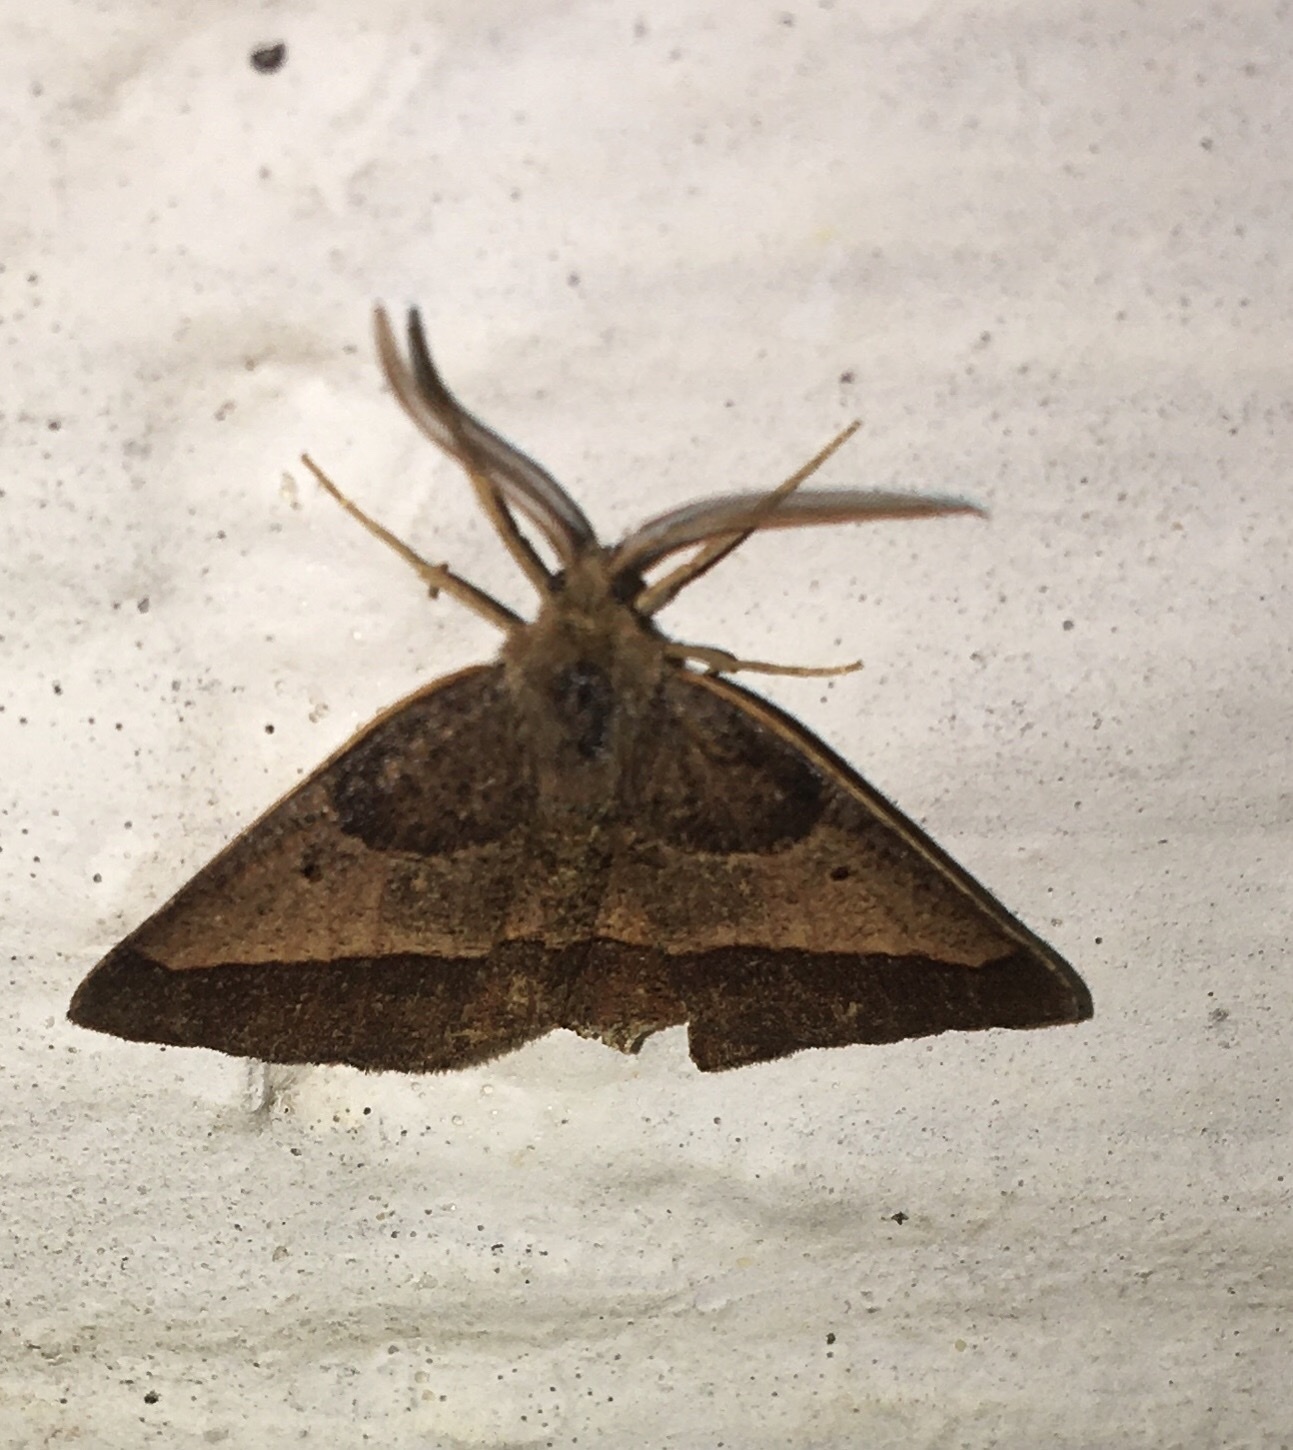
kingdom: Animalia
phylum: Arthropoda
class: Insecta
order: Lepidoptera
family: Geometridae
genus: Metarranthis
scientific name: Metarranthis obfirmaria
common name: Yellow-washed metarranthis
